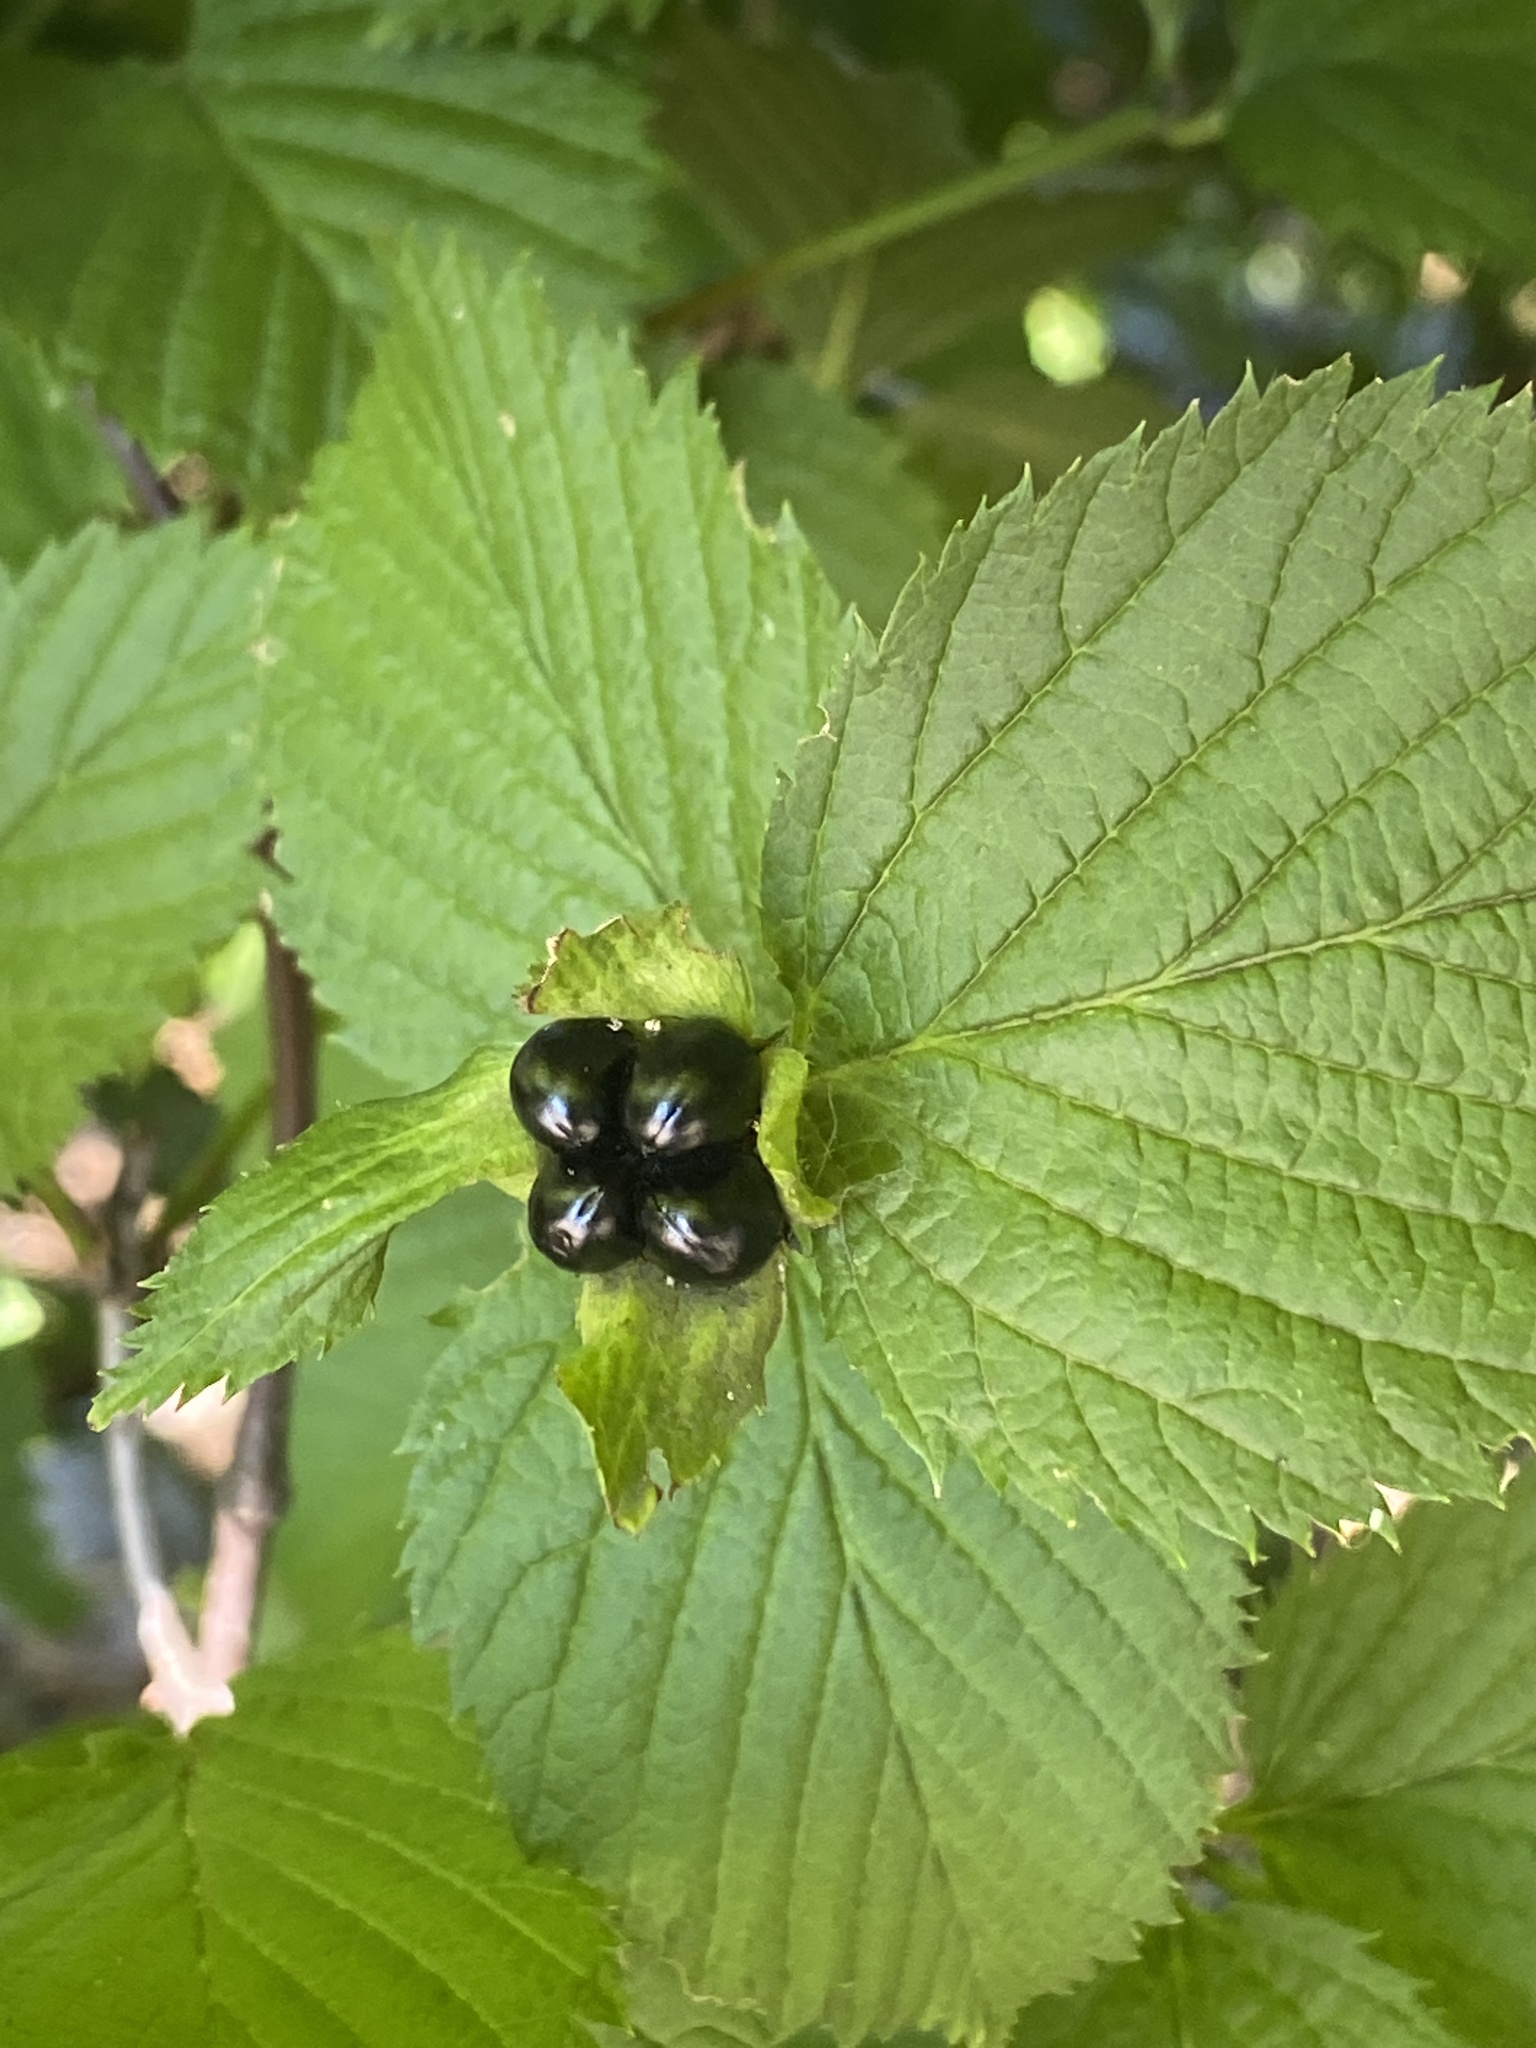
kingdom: Plantae
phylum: Tracheophyta
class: Magnoliopsida
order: Rosales
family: Rosaceae
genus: Rhodotypos
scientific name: Rhodotypos scandens
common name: Jetbead
